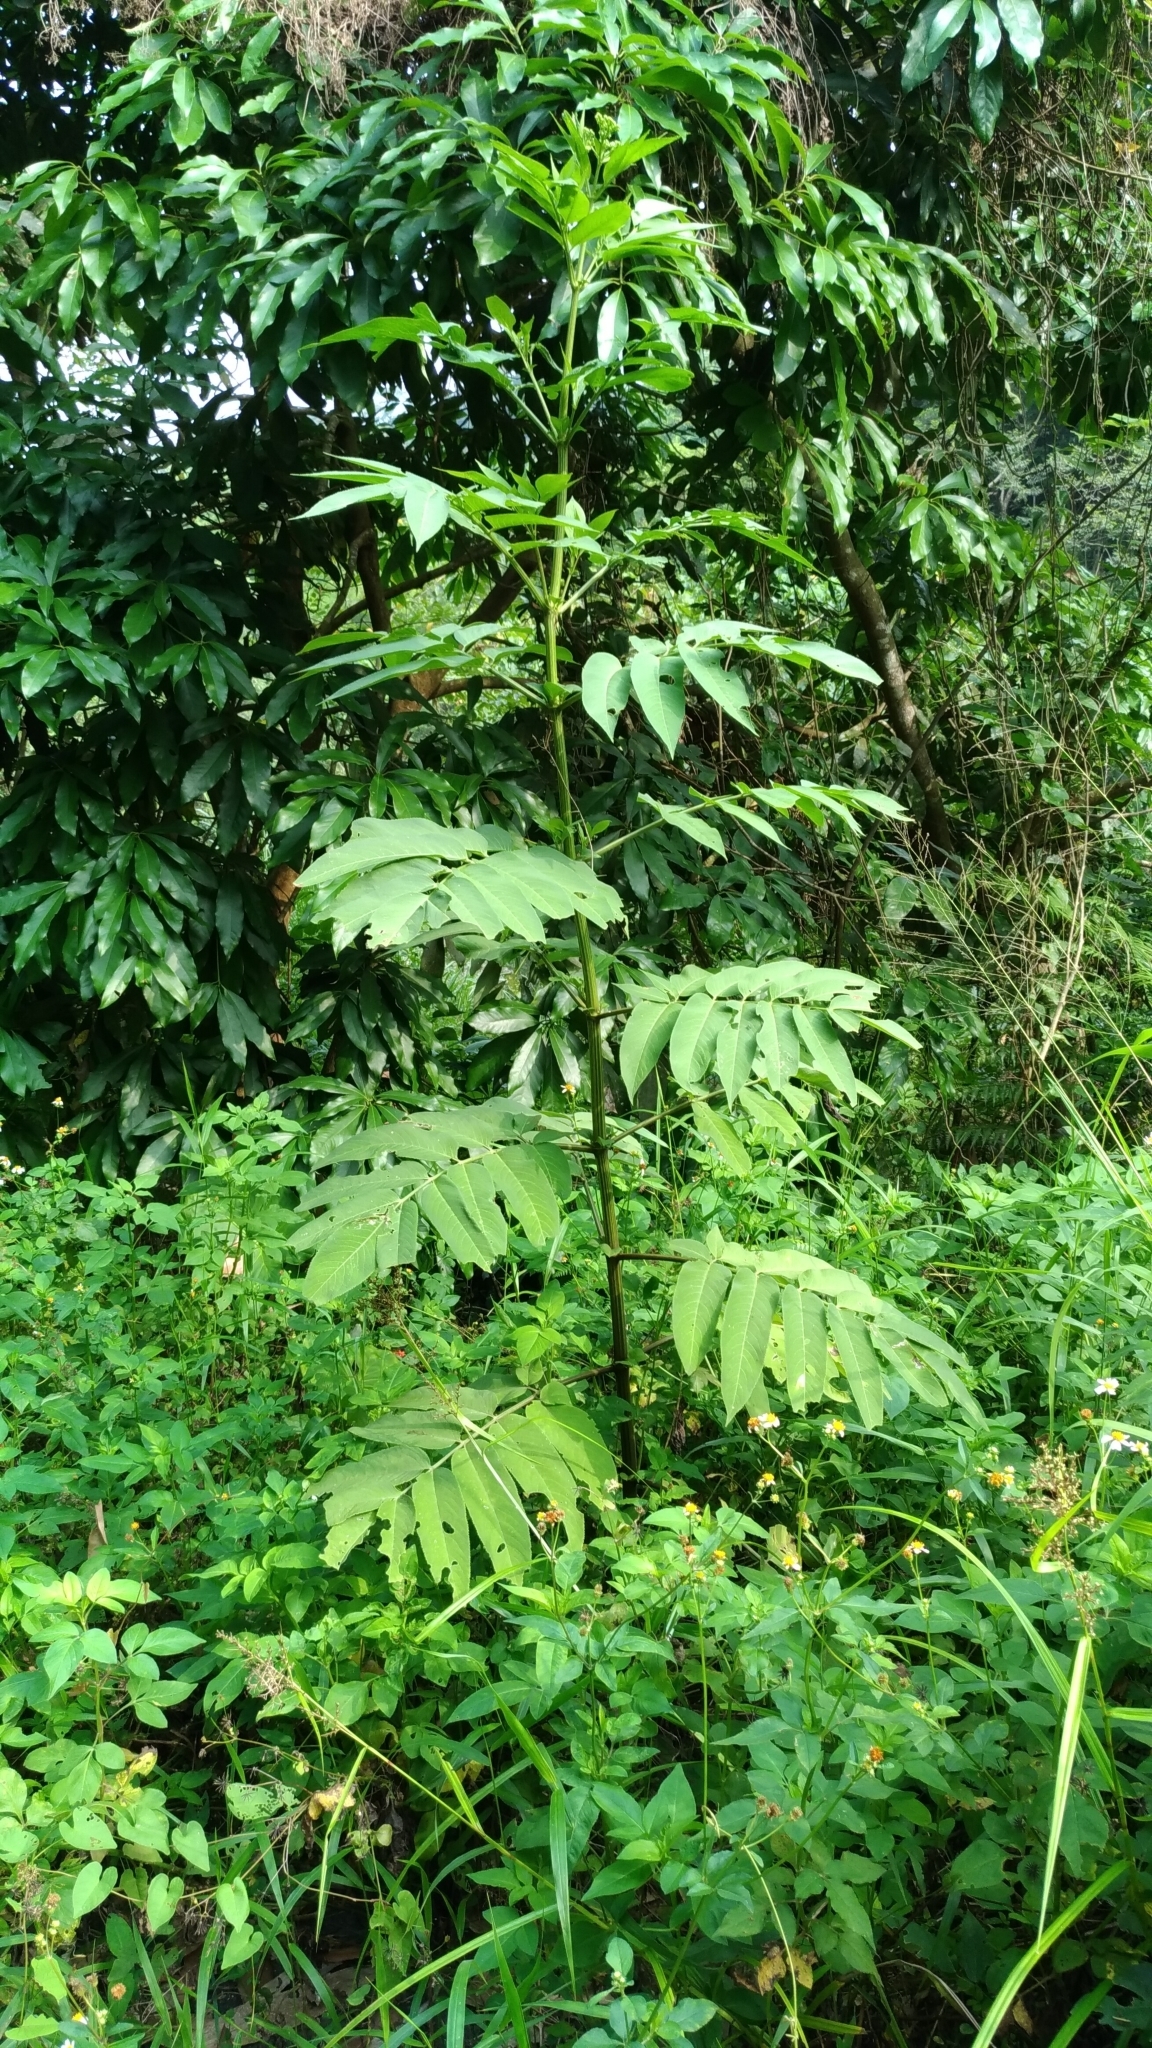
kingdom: Plantae
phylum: Tracheophyta
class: Magnoliopsida
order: Dipsacales
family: Viburnaceae
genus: Sambucus
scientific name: Sambucus javanica
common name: Chinese elder
